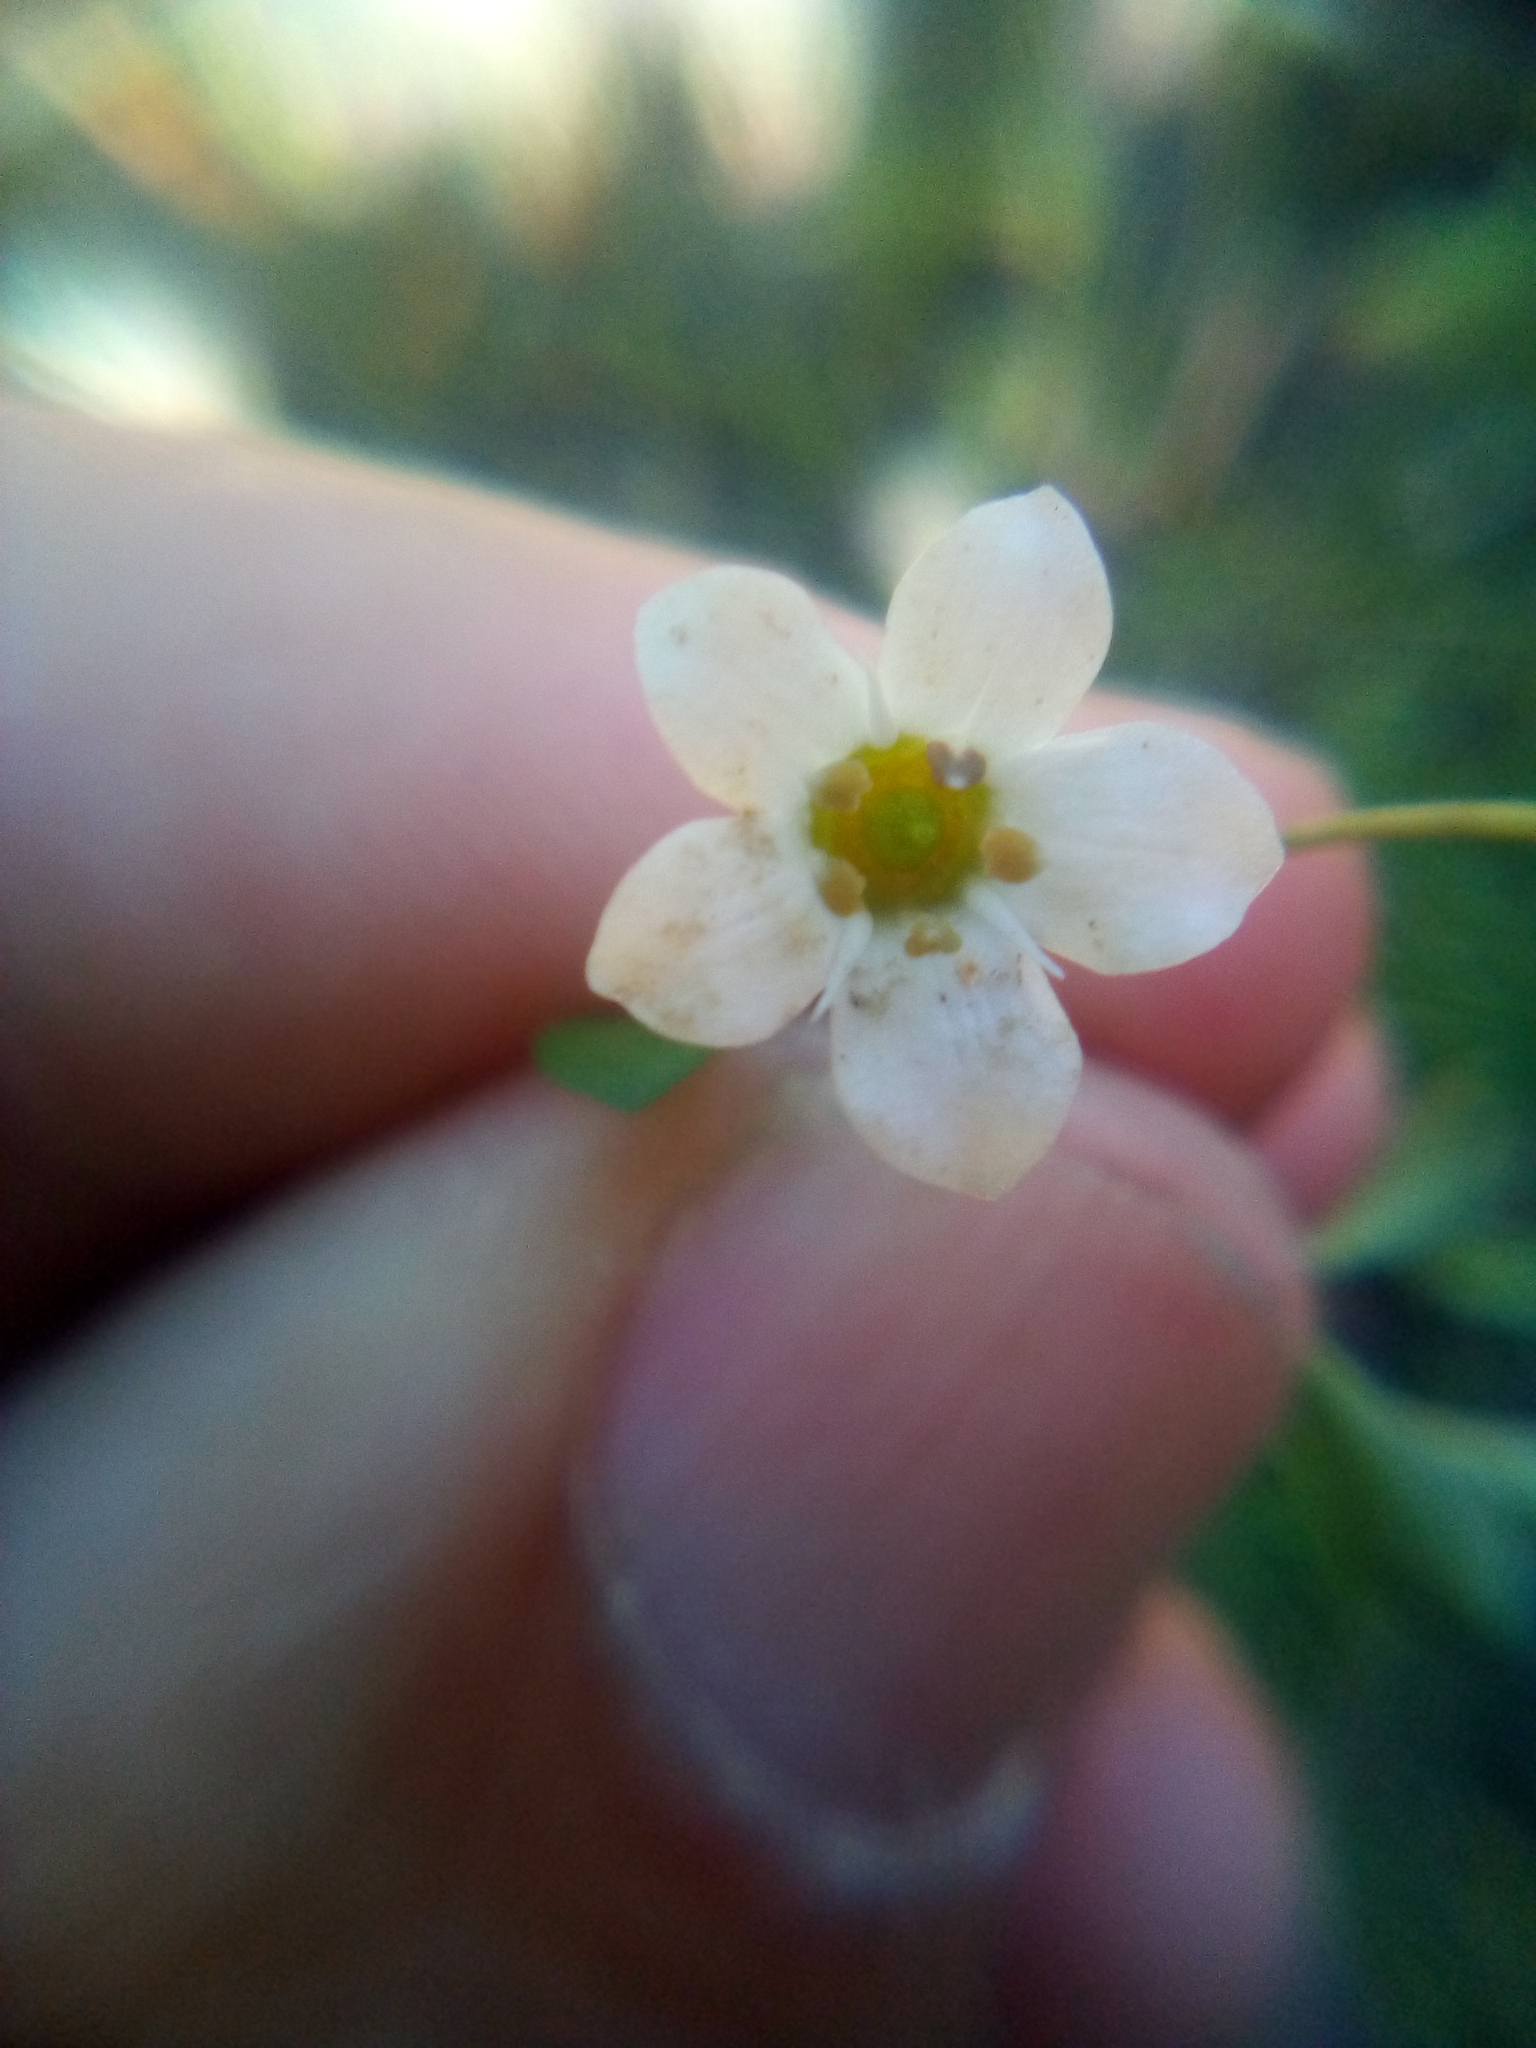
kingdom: Plantae
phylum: Tracheophyta
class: Magnoliopsida
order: Ericales
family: Primulaceae
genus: Samolus
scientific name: Samolus repens
